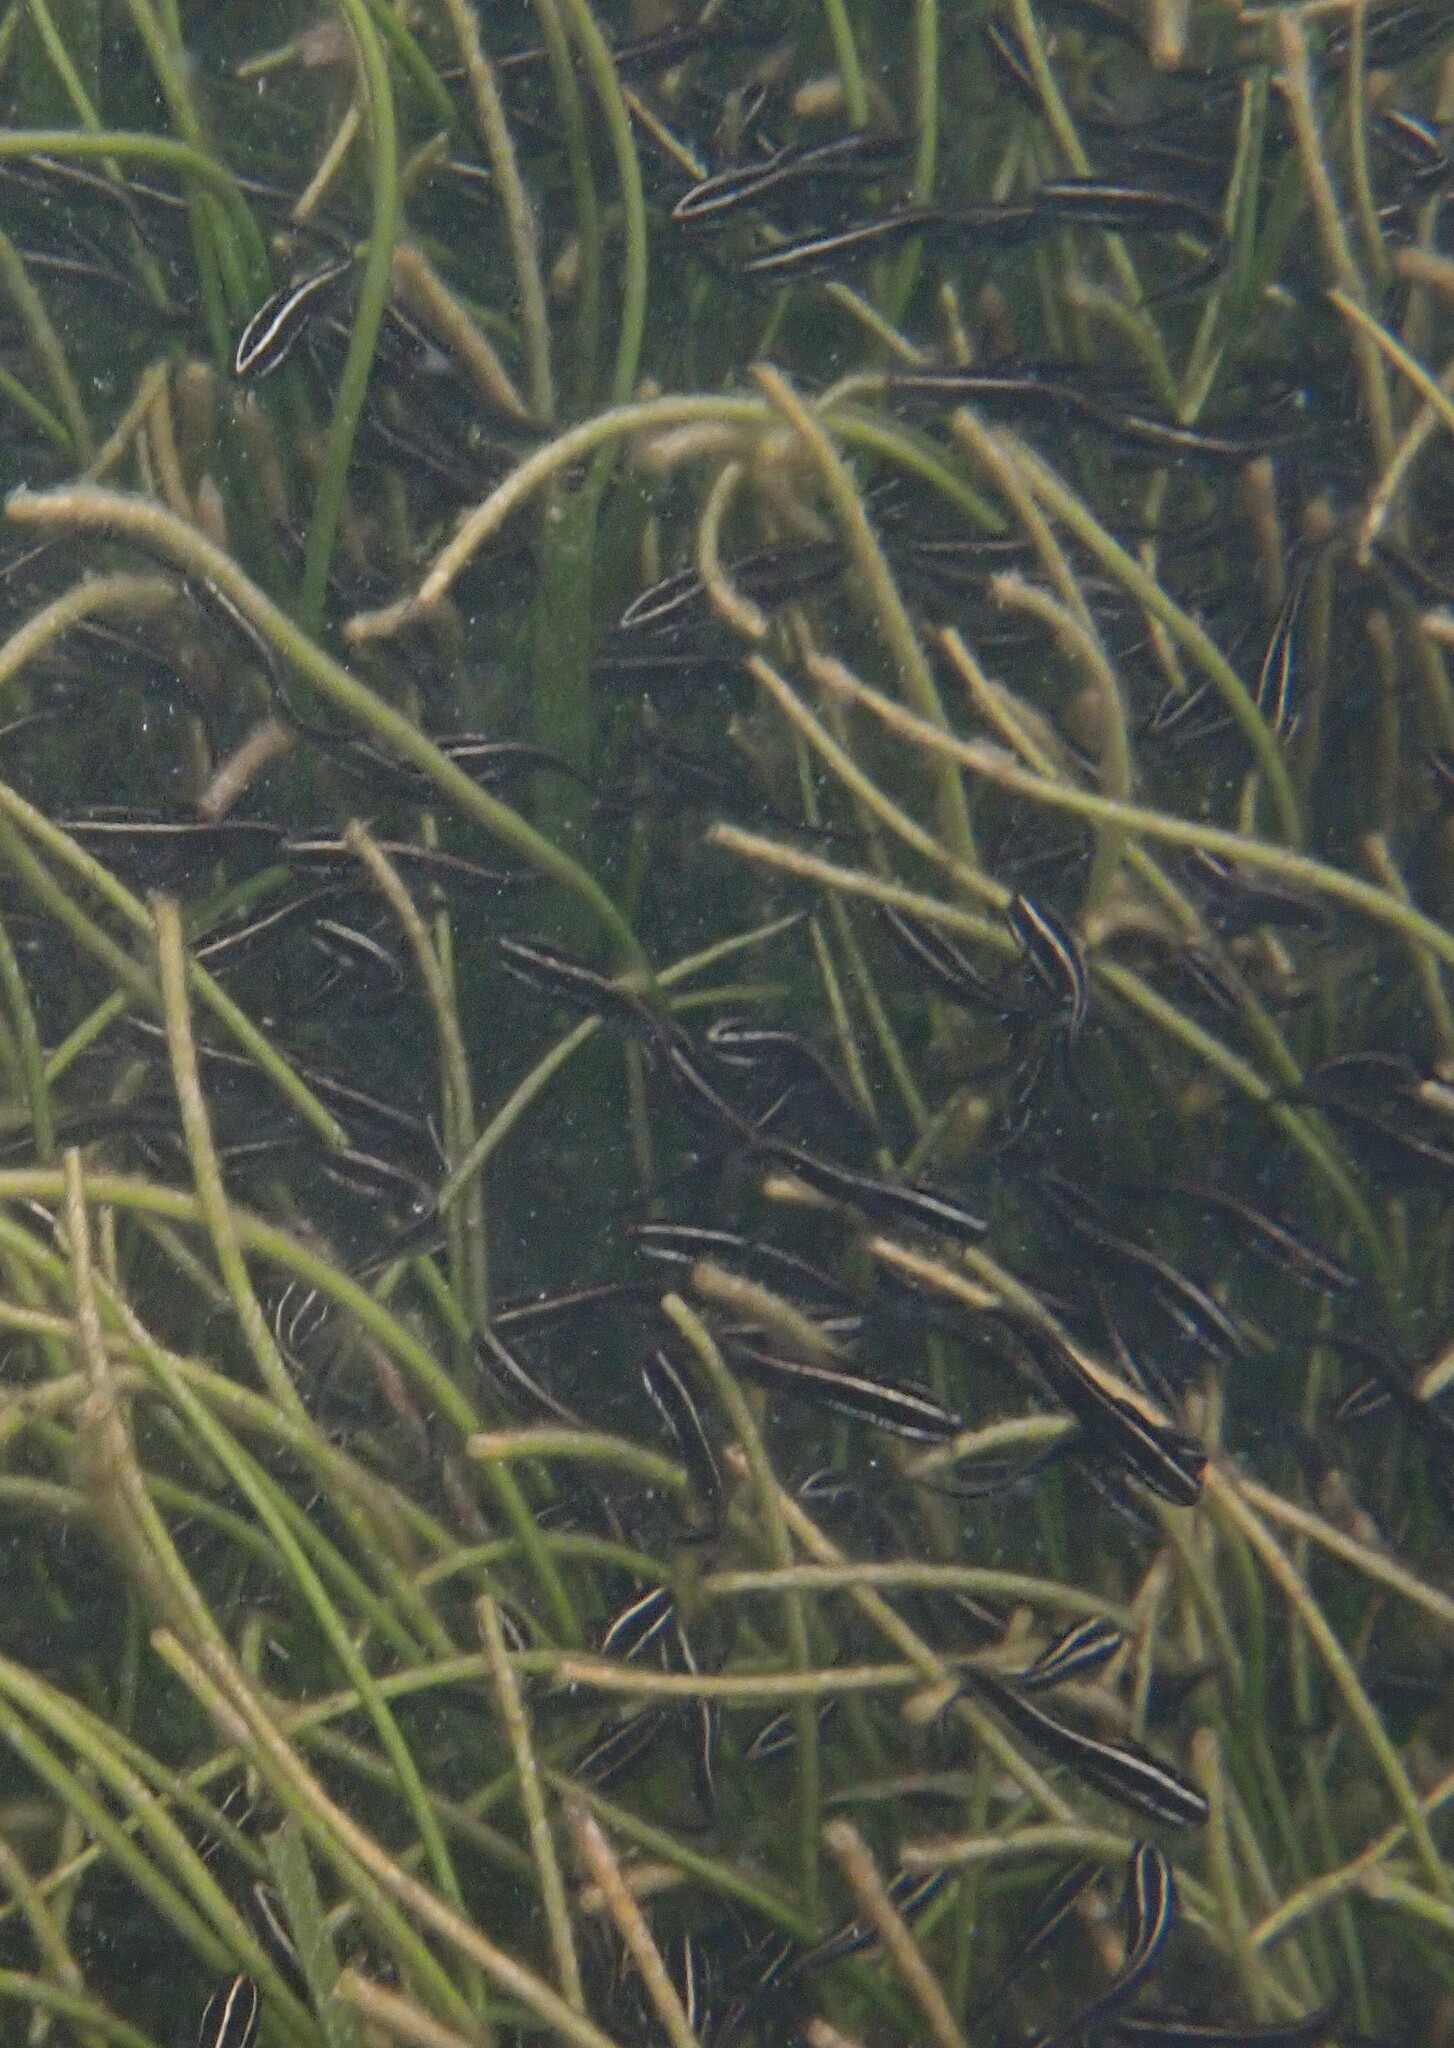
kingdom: Animalia
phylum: Chordata
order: Siluriformes
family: Plotosidae
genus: Plotosus
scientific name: Plotosus lineatus
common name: Striped eel catfish
